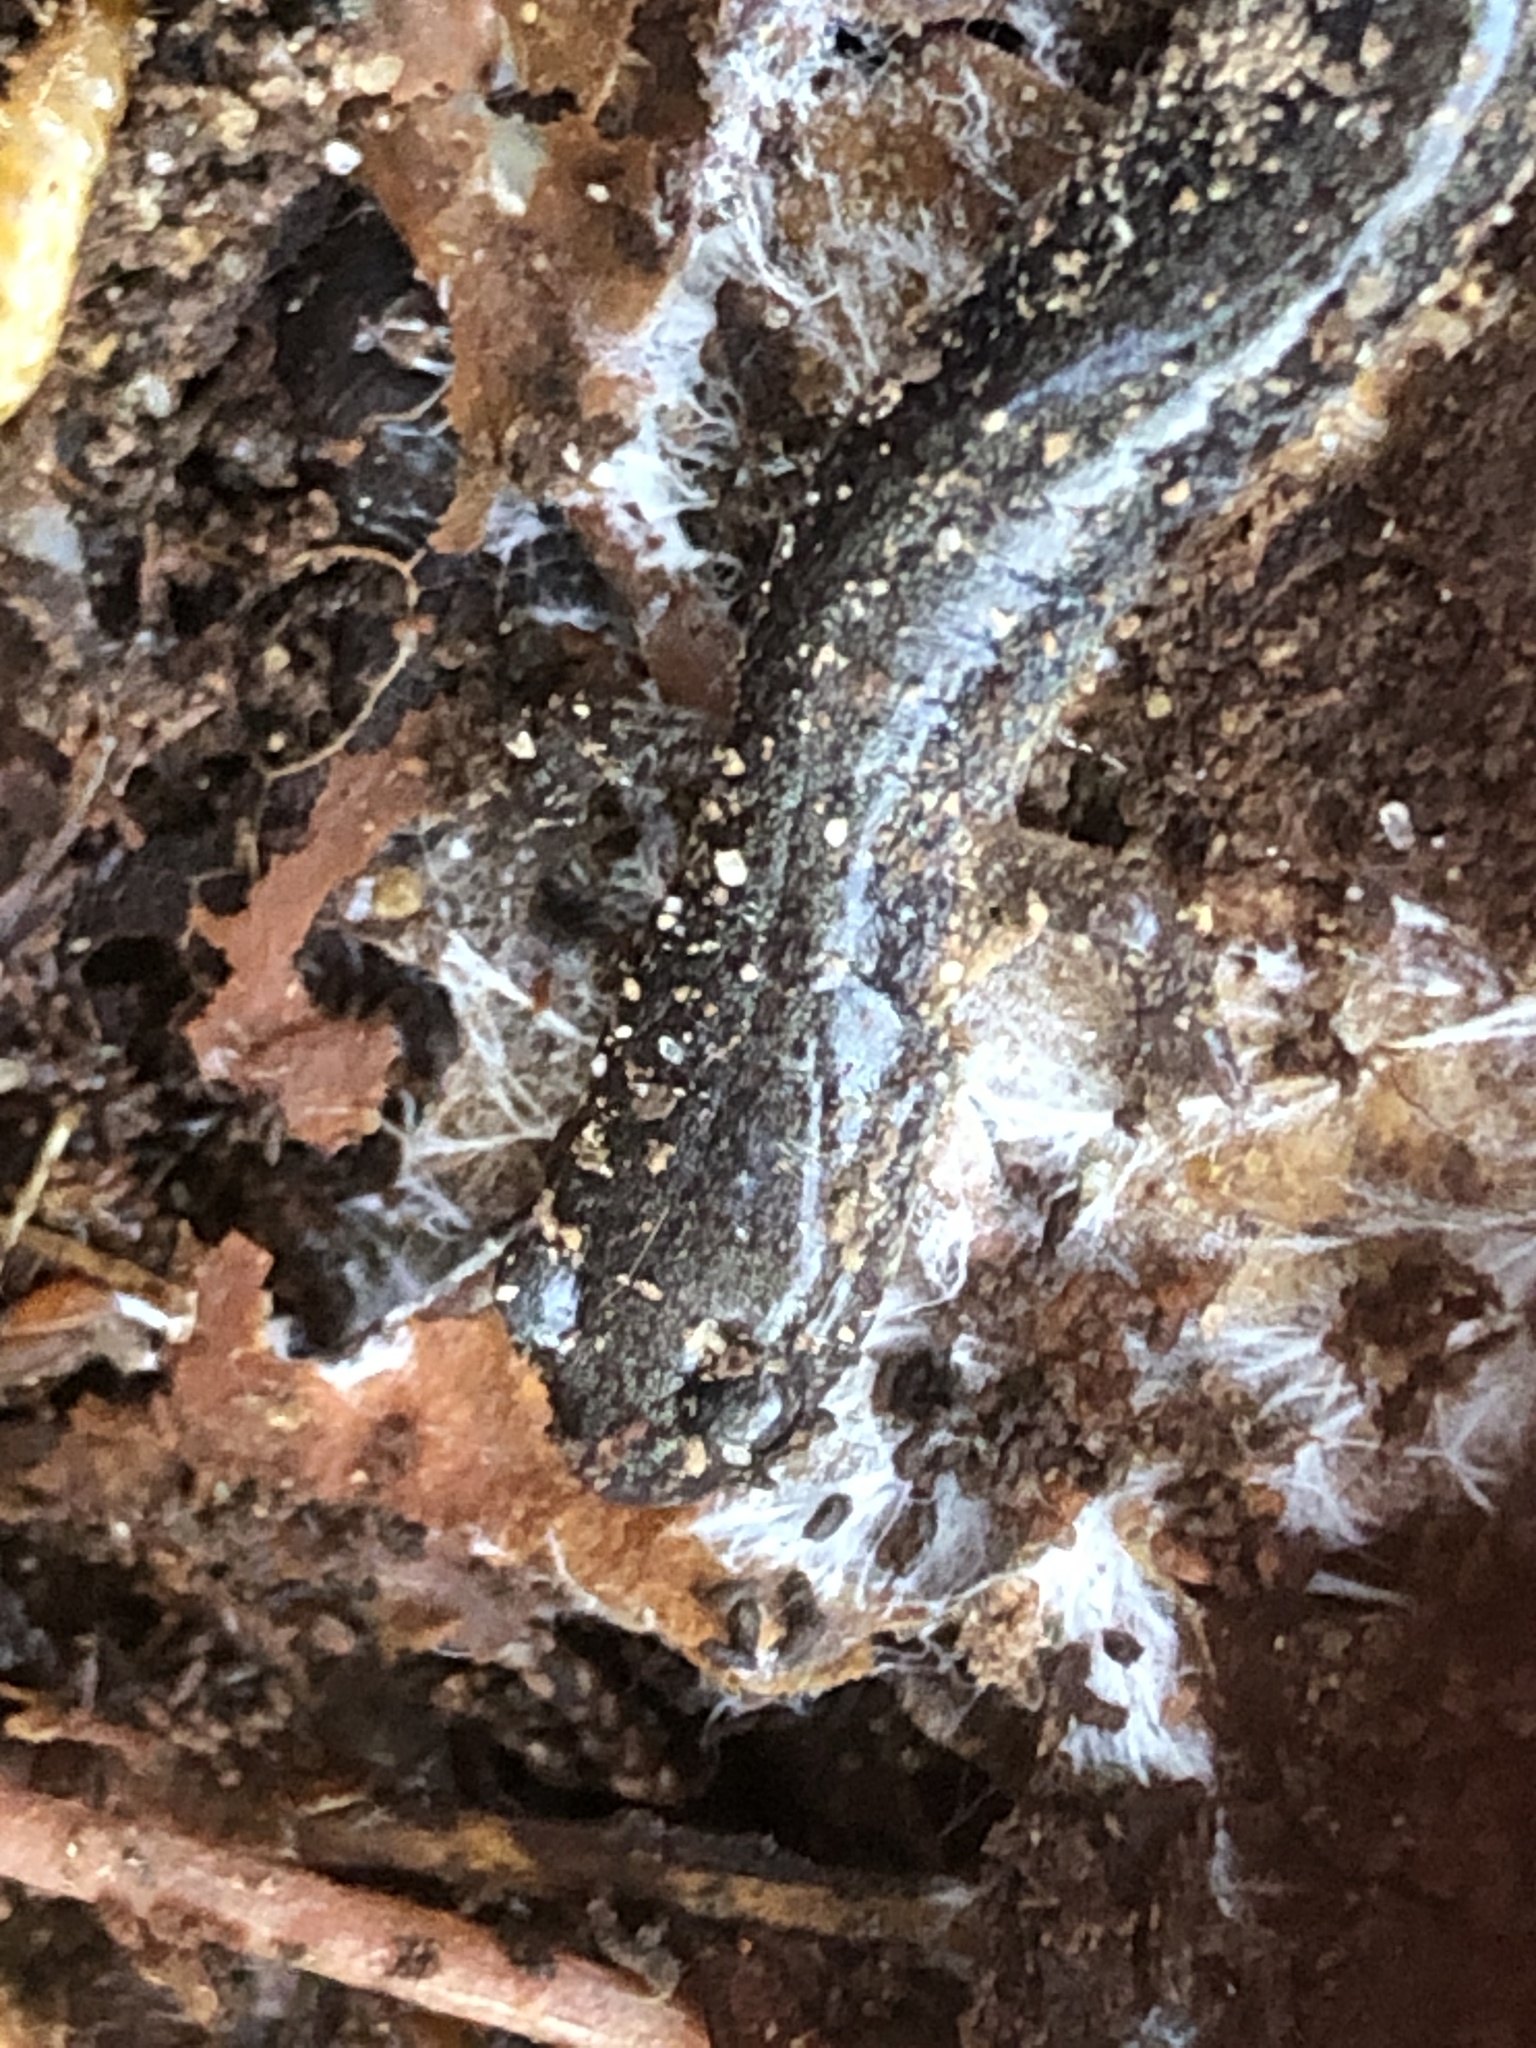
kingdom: Animalia
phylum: Chordata
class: Amphibia
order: Caudata
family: Plethodontidae
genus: Plethodon
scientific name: Plethodon cinereus
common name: Redback salamander
